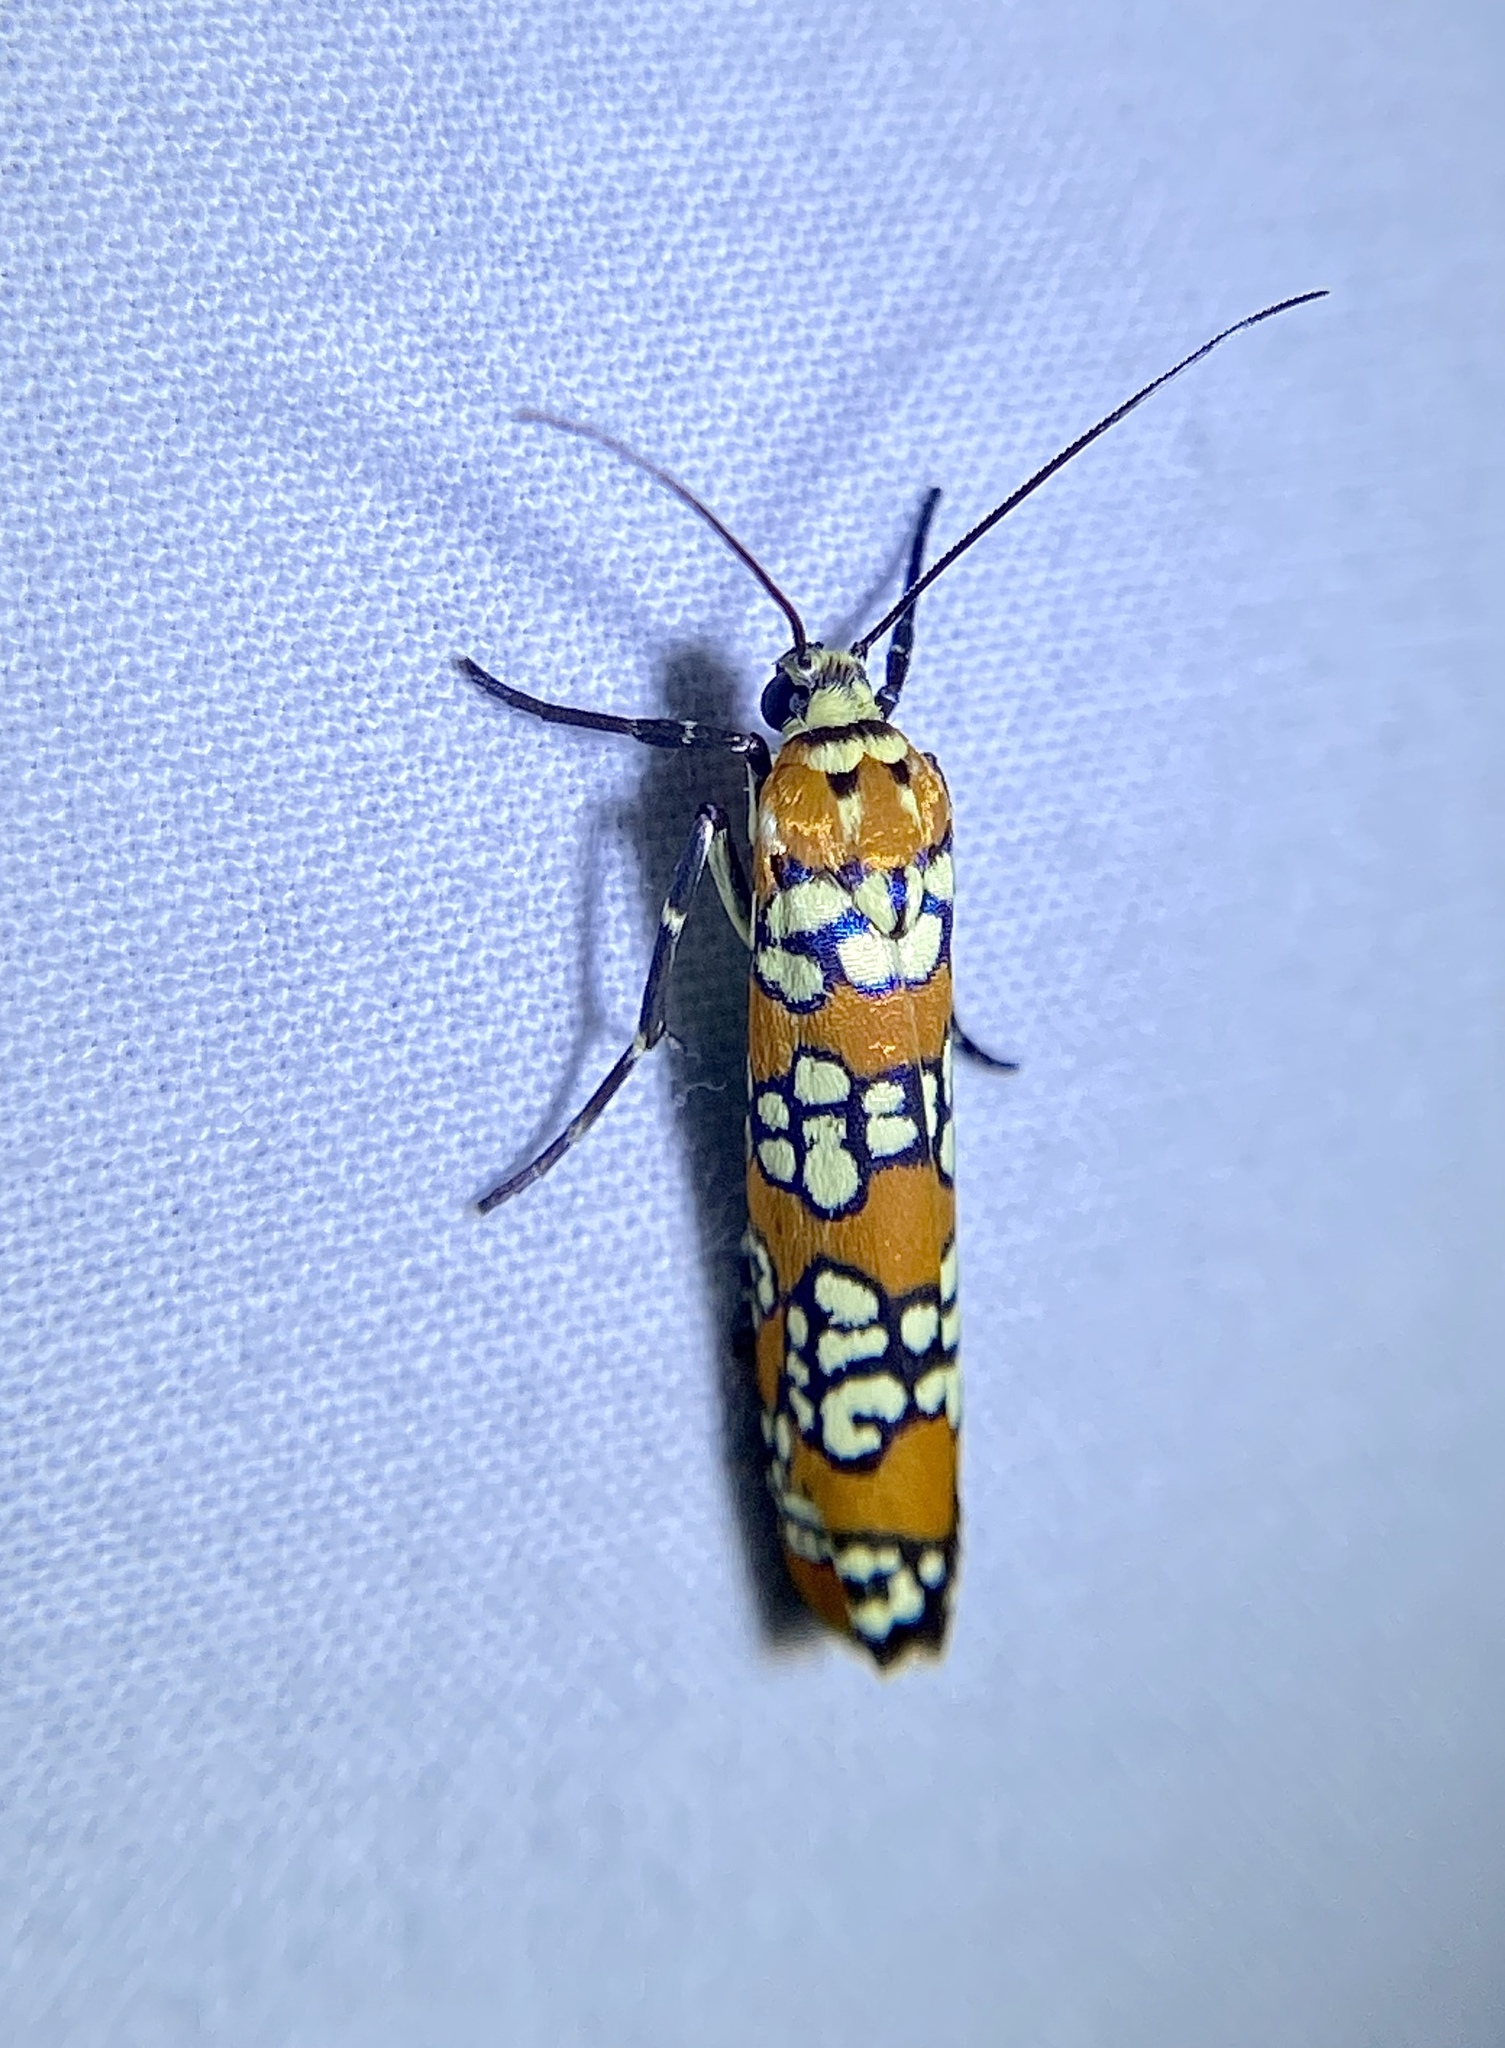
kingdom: Animalia
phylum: Arthropoda
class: Insecta
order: Lepidoptera
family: Attevidae
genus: Atteva
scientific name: Atteva punctella
